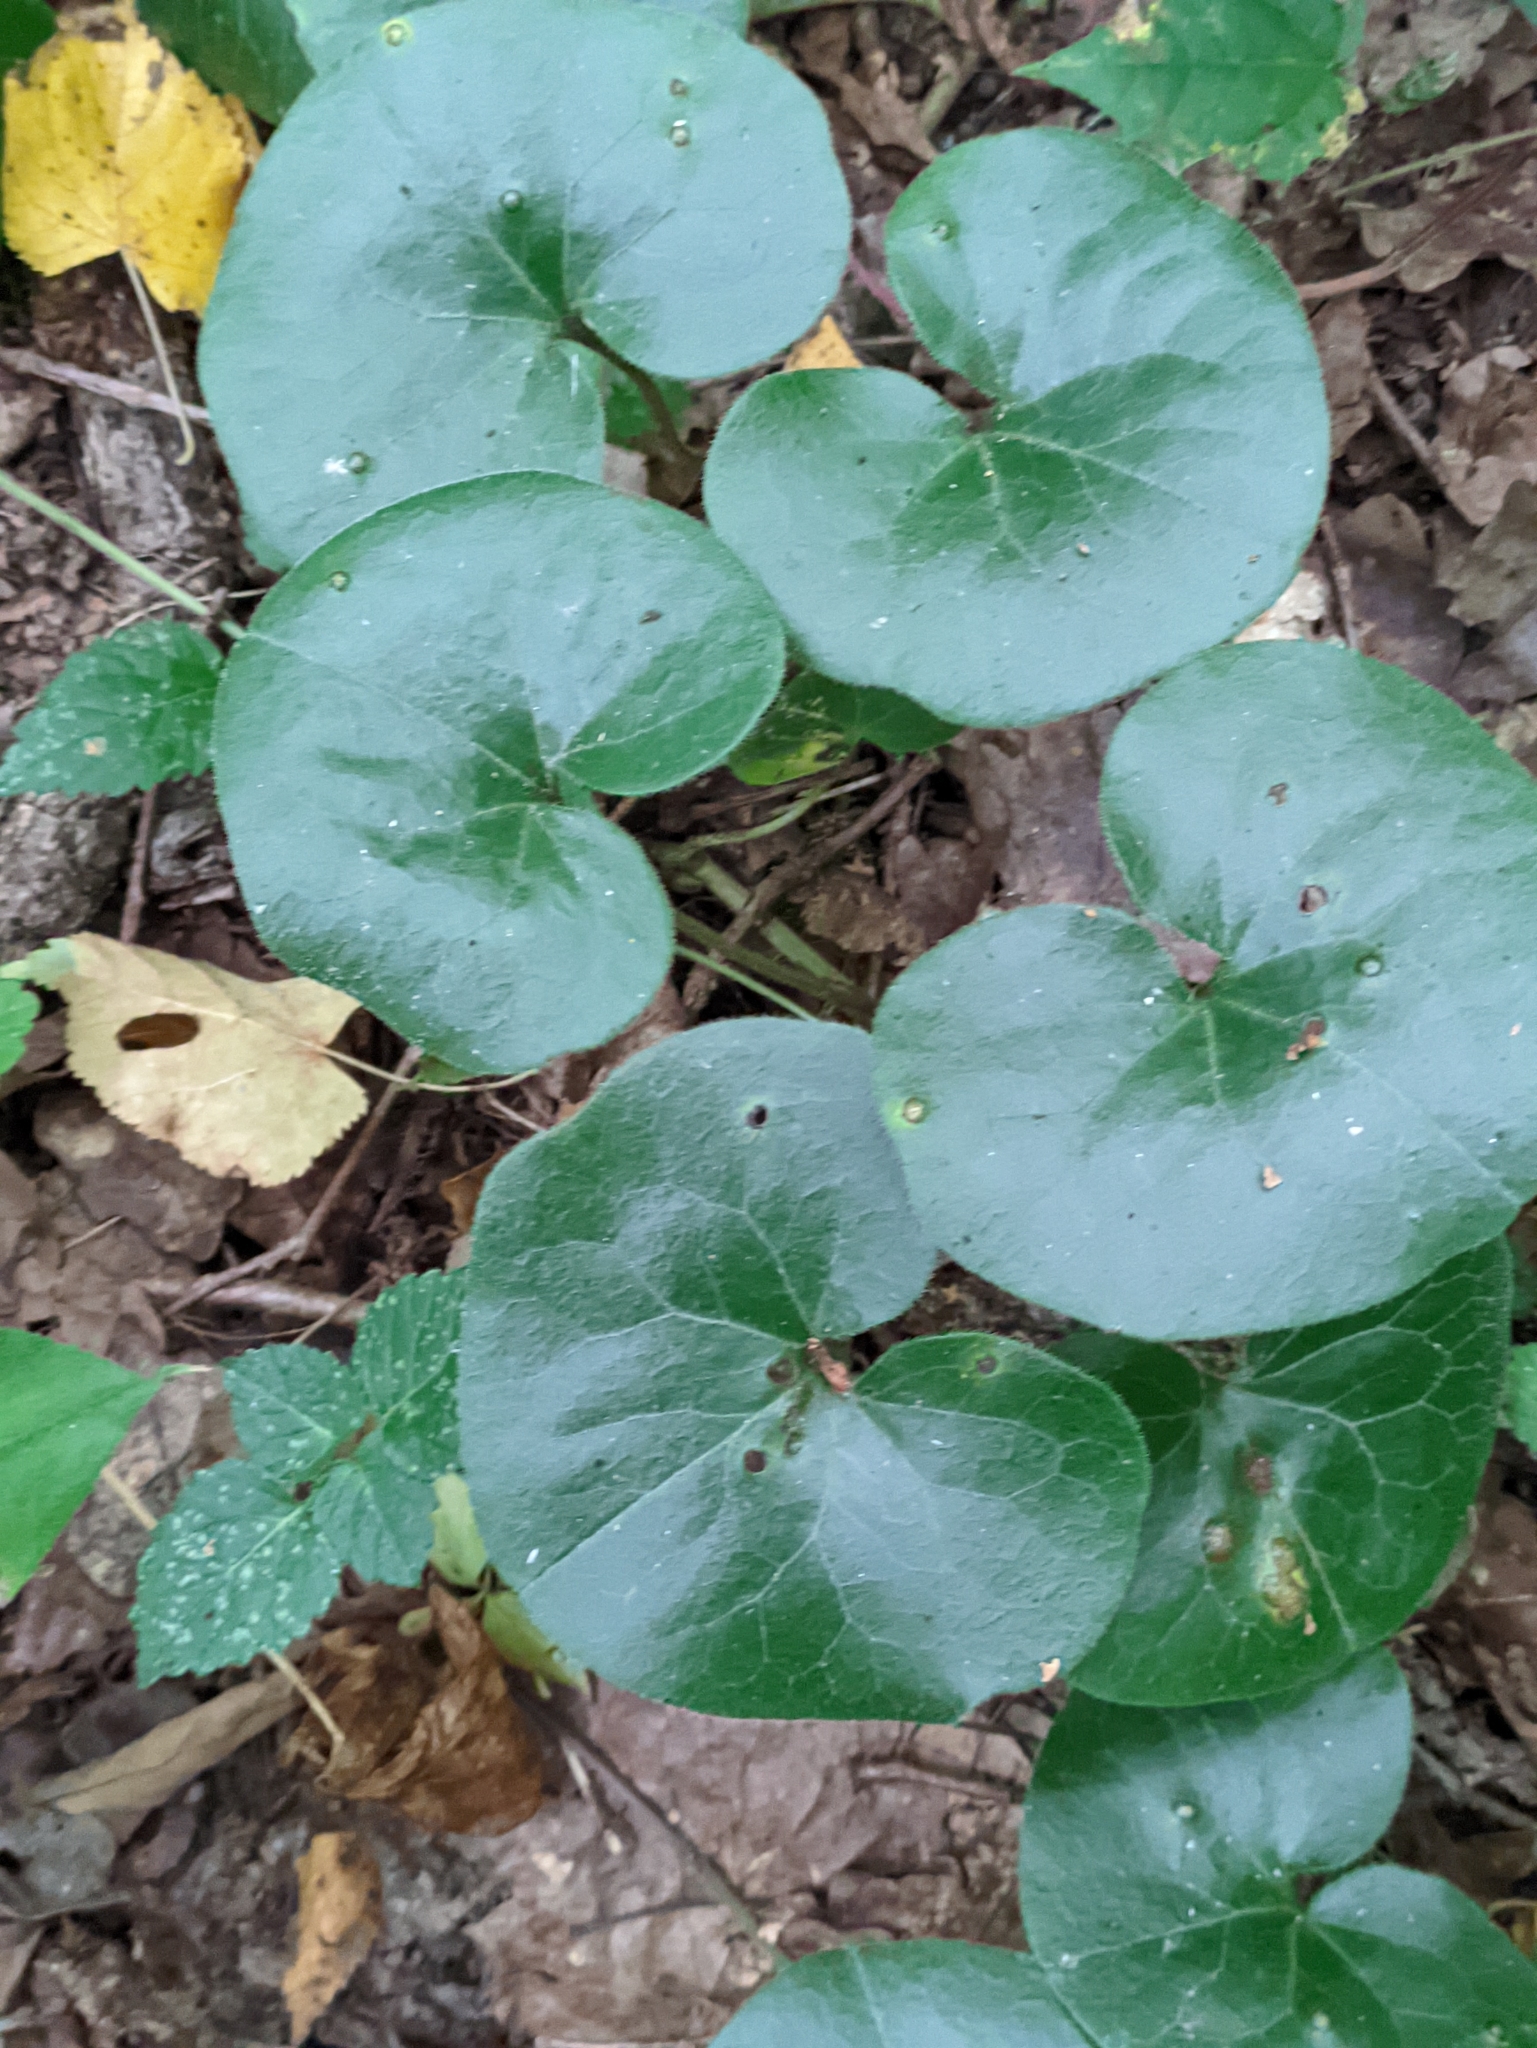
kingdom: Plantae
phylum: Tracheophyta
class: Magnoliopsida
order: Piperales
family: Aristolochiaceae
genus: Asarum
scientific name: Asarum europaeum
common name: Asarabacca
